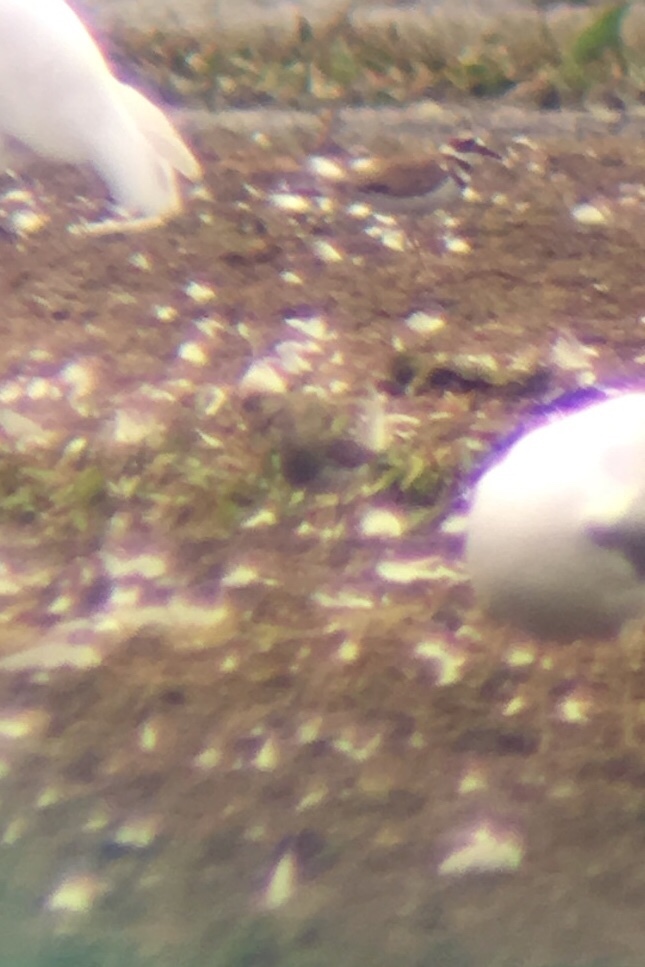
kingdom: Animalia
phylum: Chordata
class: Aves
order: Charadriiformes
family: Scolopacidae
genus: Calidris
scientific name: Calidris melanotos
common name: Pectoral sandpiper
